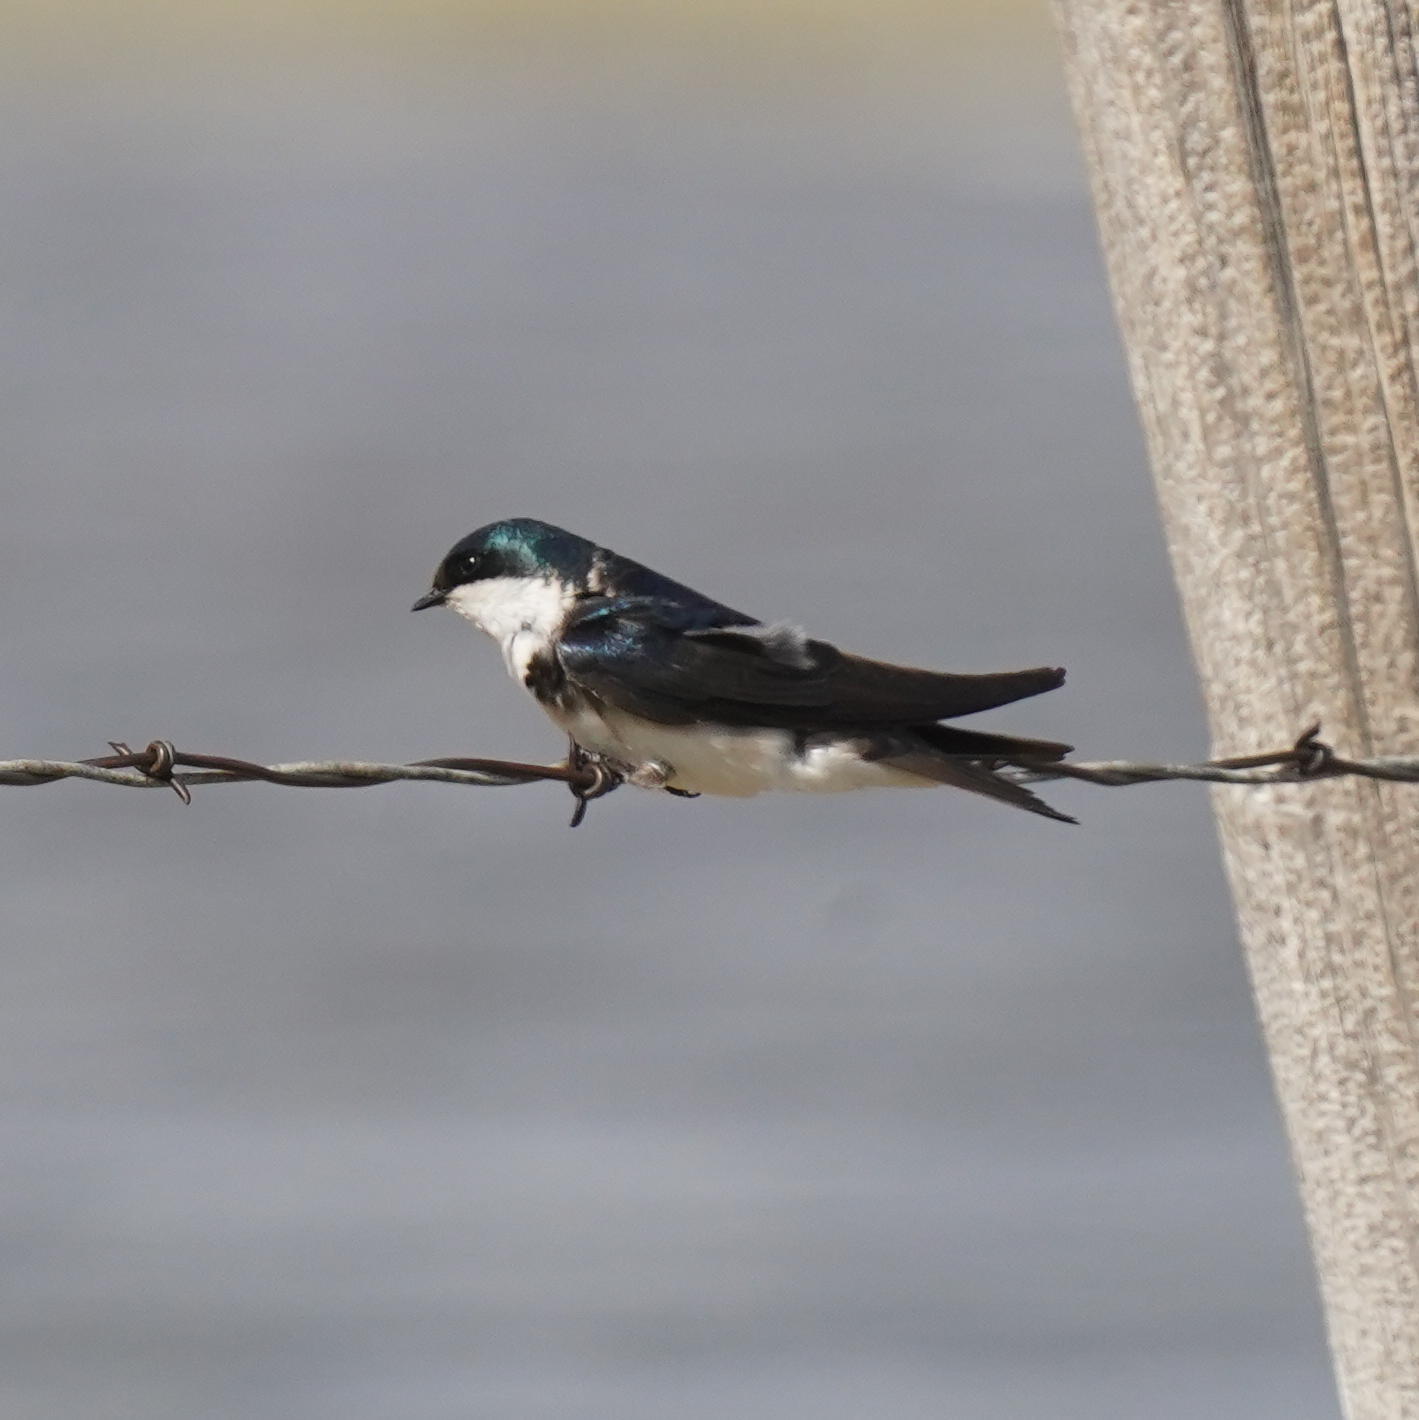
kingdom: Animalia
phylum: Chordata
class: Aves
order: Passeriformes
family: Hirundinidae
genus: Tachycineta
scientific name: Tachycineta bicolor
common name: Tree swallow
